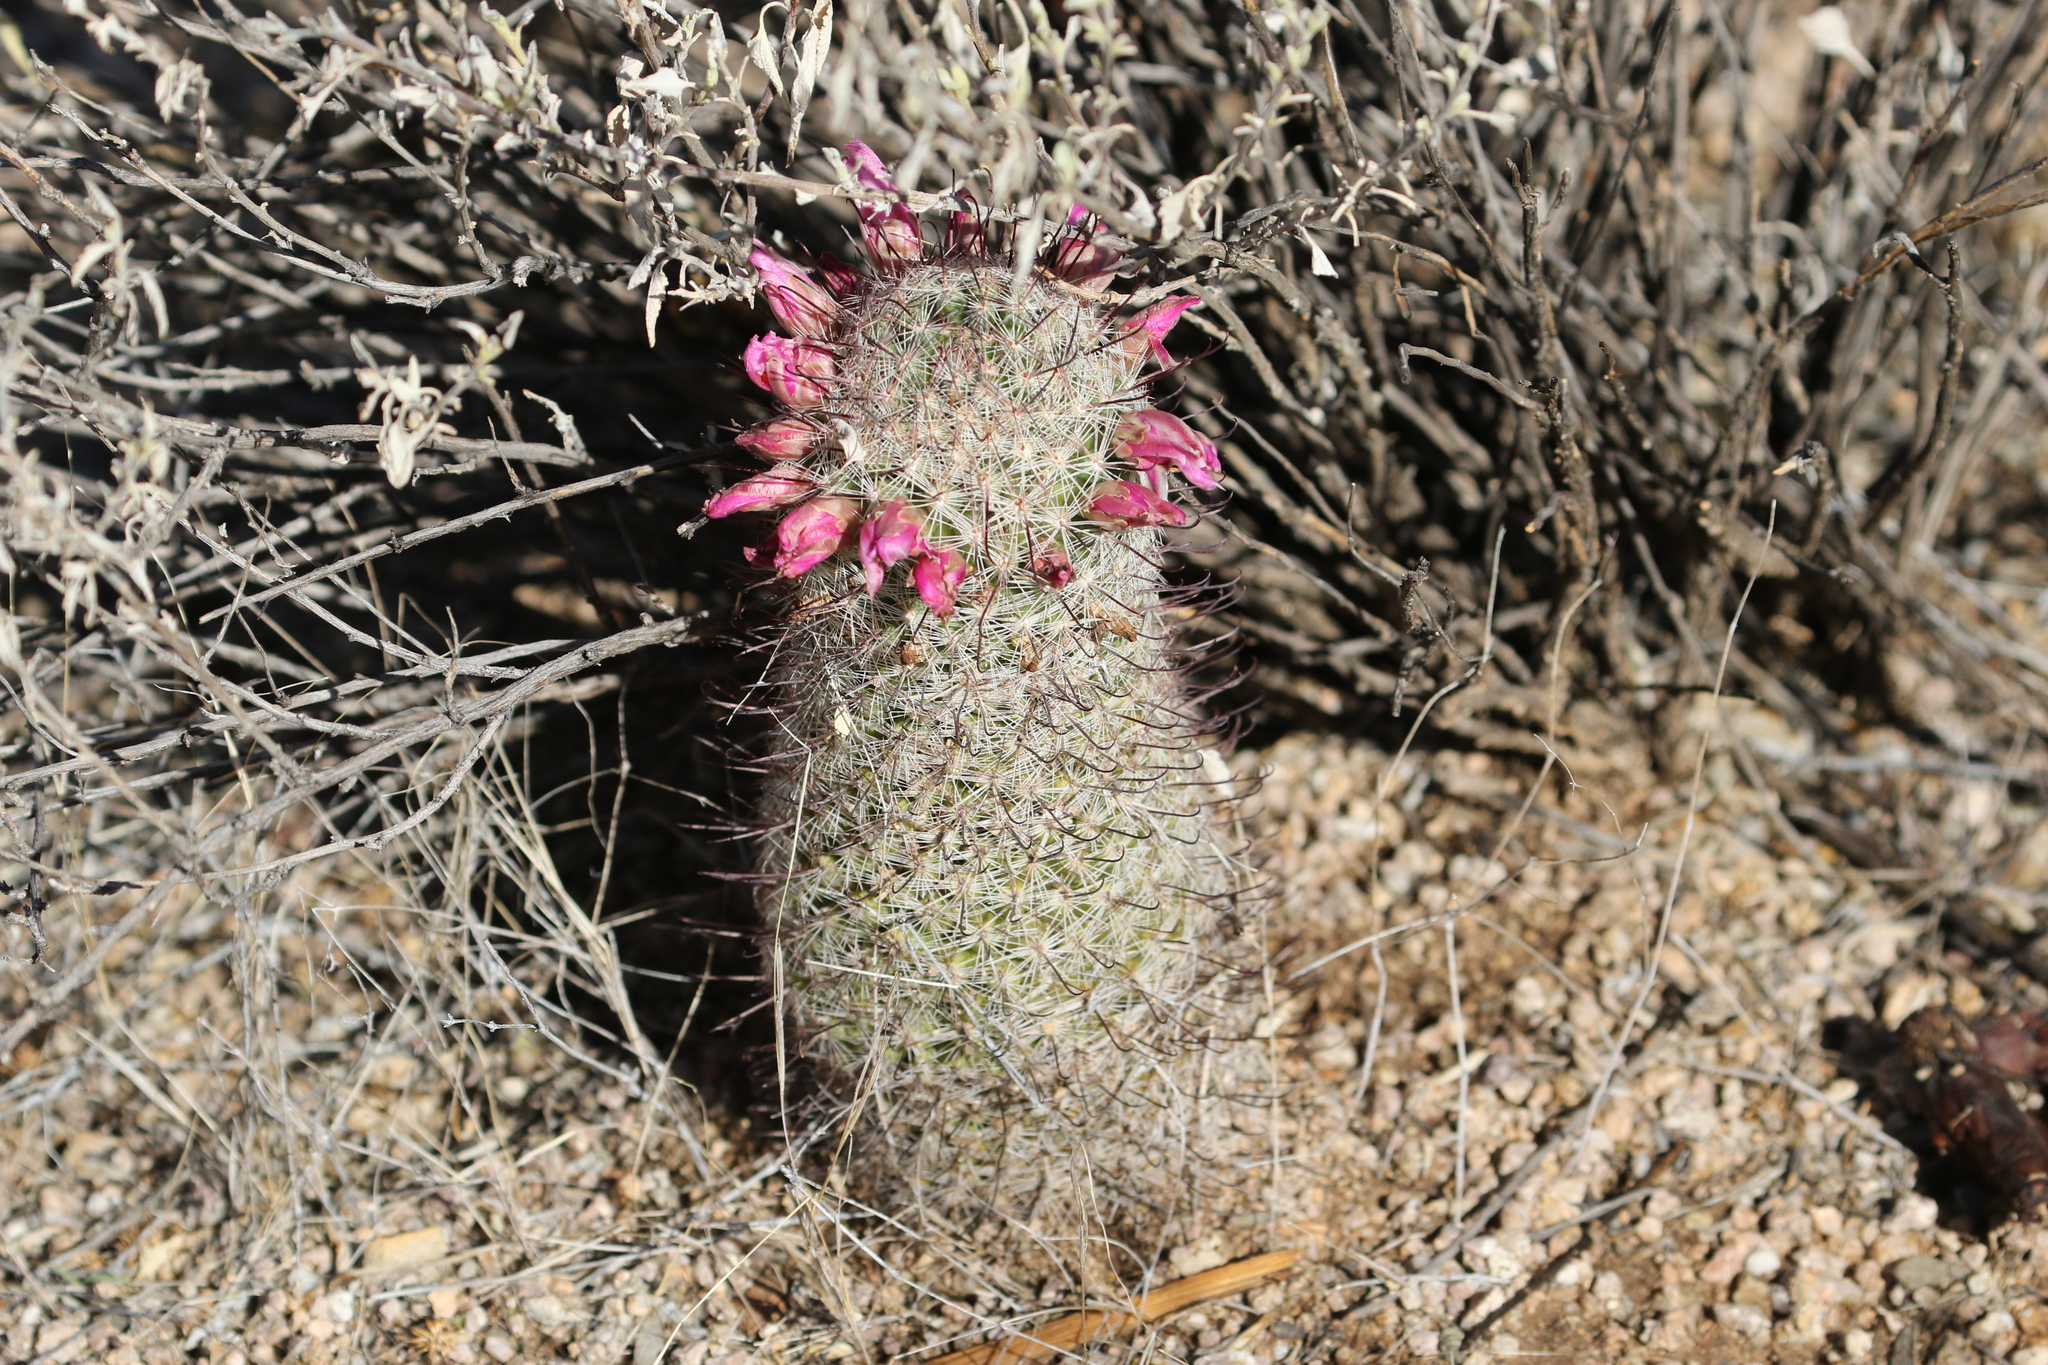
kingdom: Plantae
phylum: Tracheophyta
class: Magnoliopsida
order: Caryophyllales
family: Cactaceae
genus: Cochemiea
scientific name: Cochemiea grahamii
